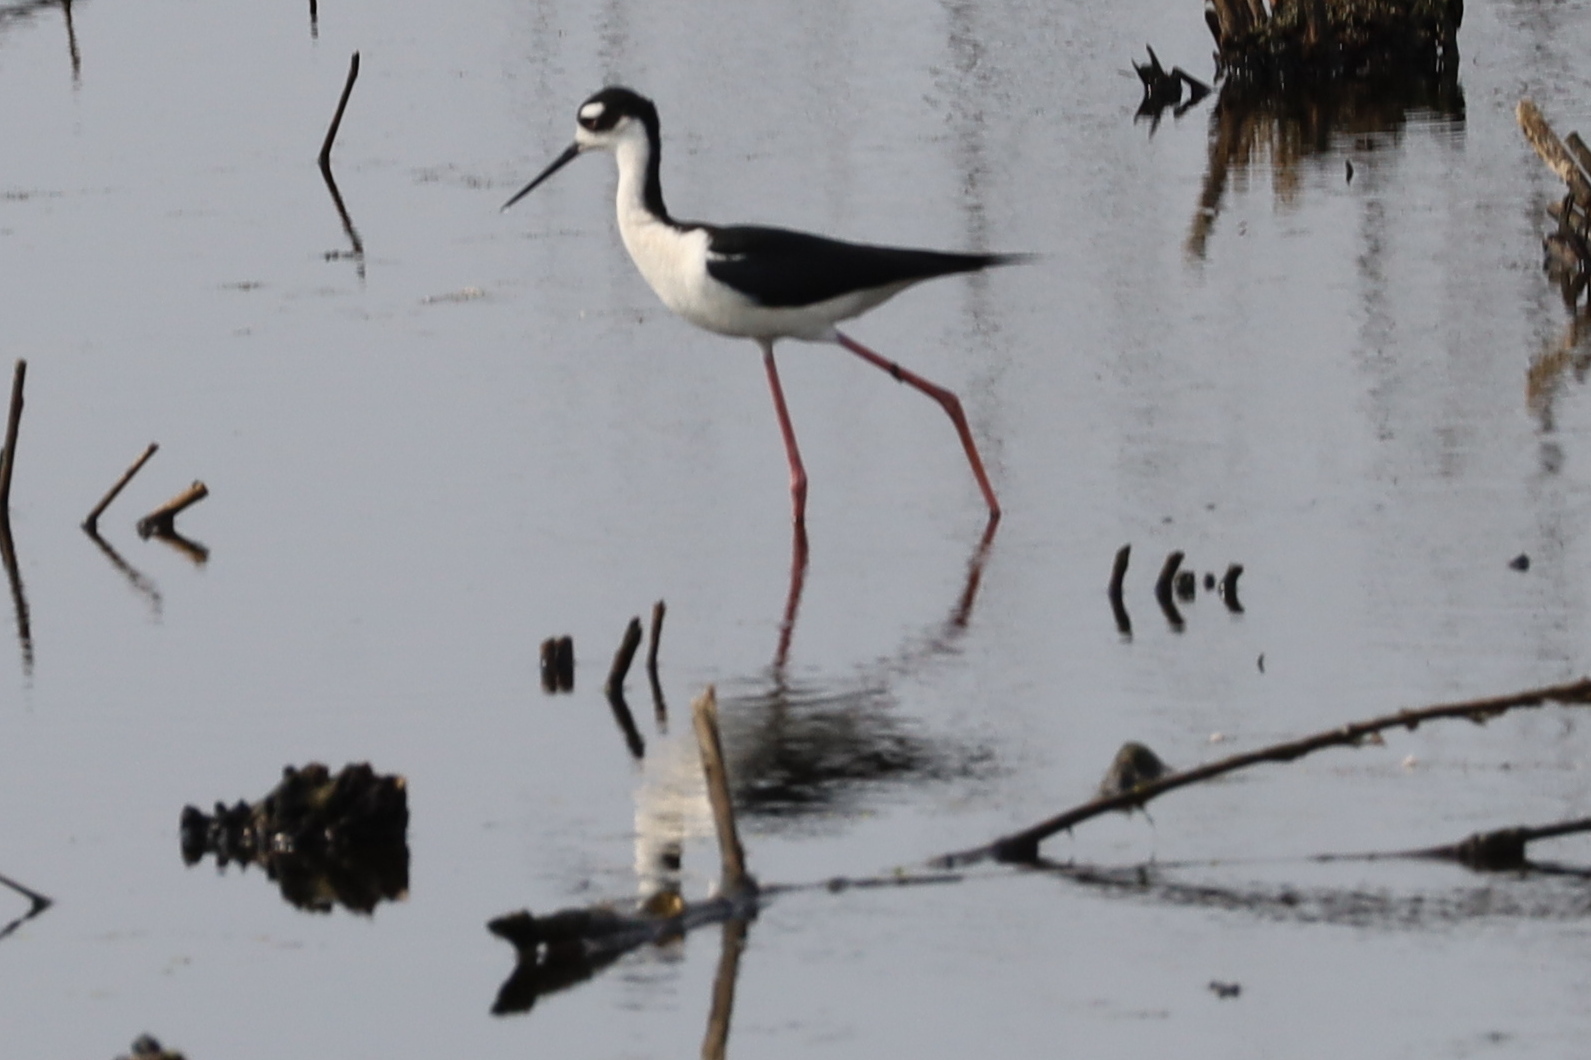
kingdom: Animalia
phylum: Chordata
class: Aves
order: Charadriiformes
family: Recurvirostridae
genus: Himantopus
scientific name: Himantopus mexicanus
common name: Black-necked stilt
